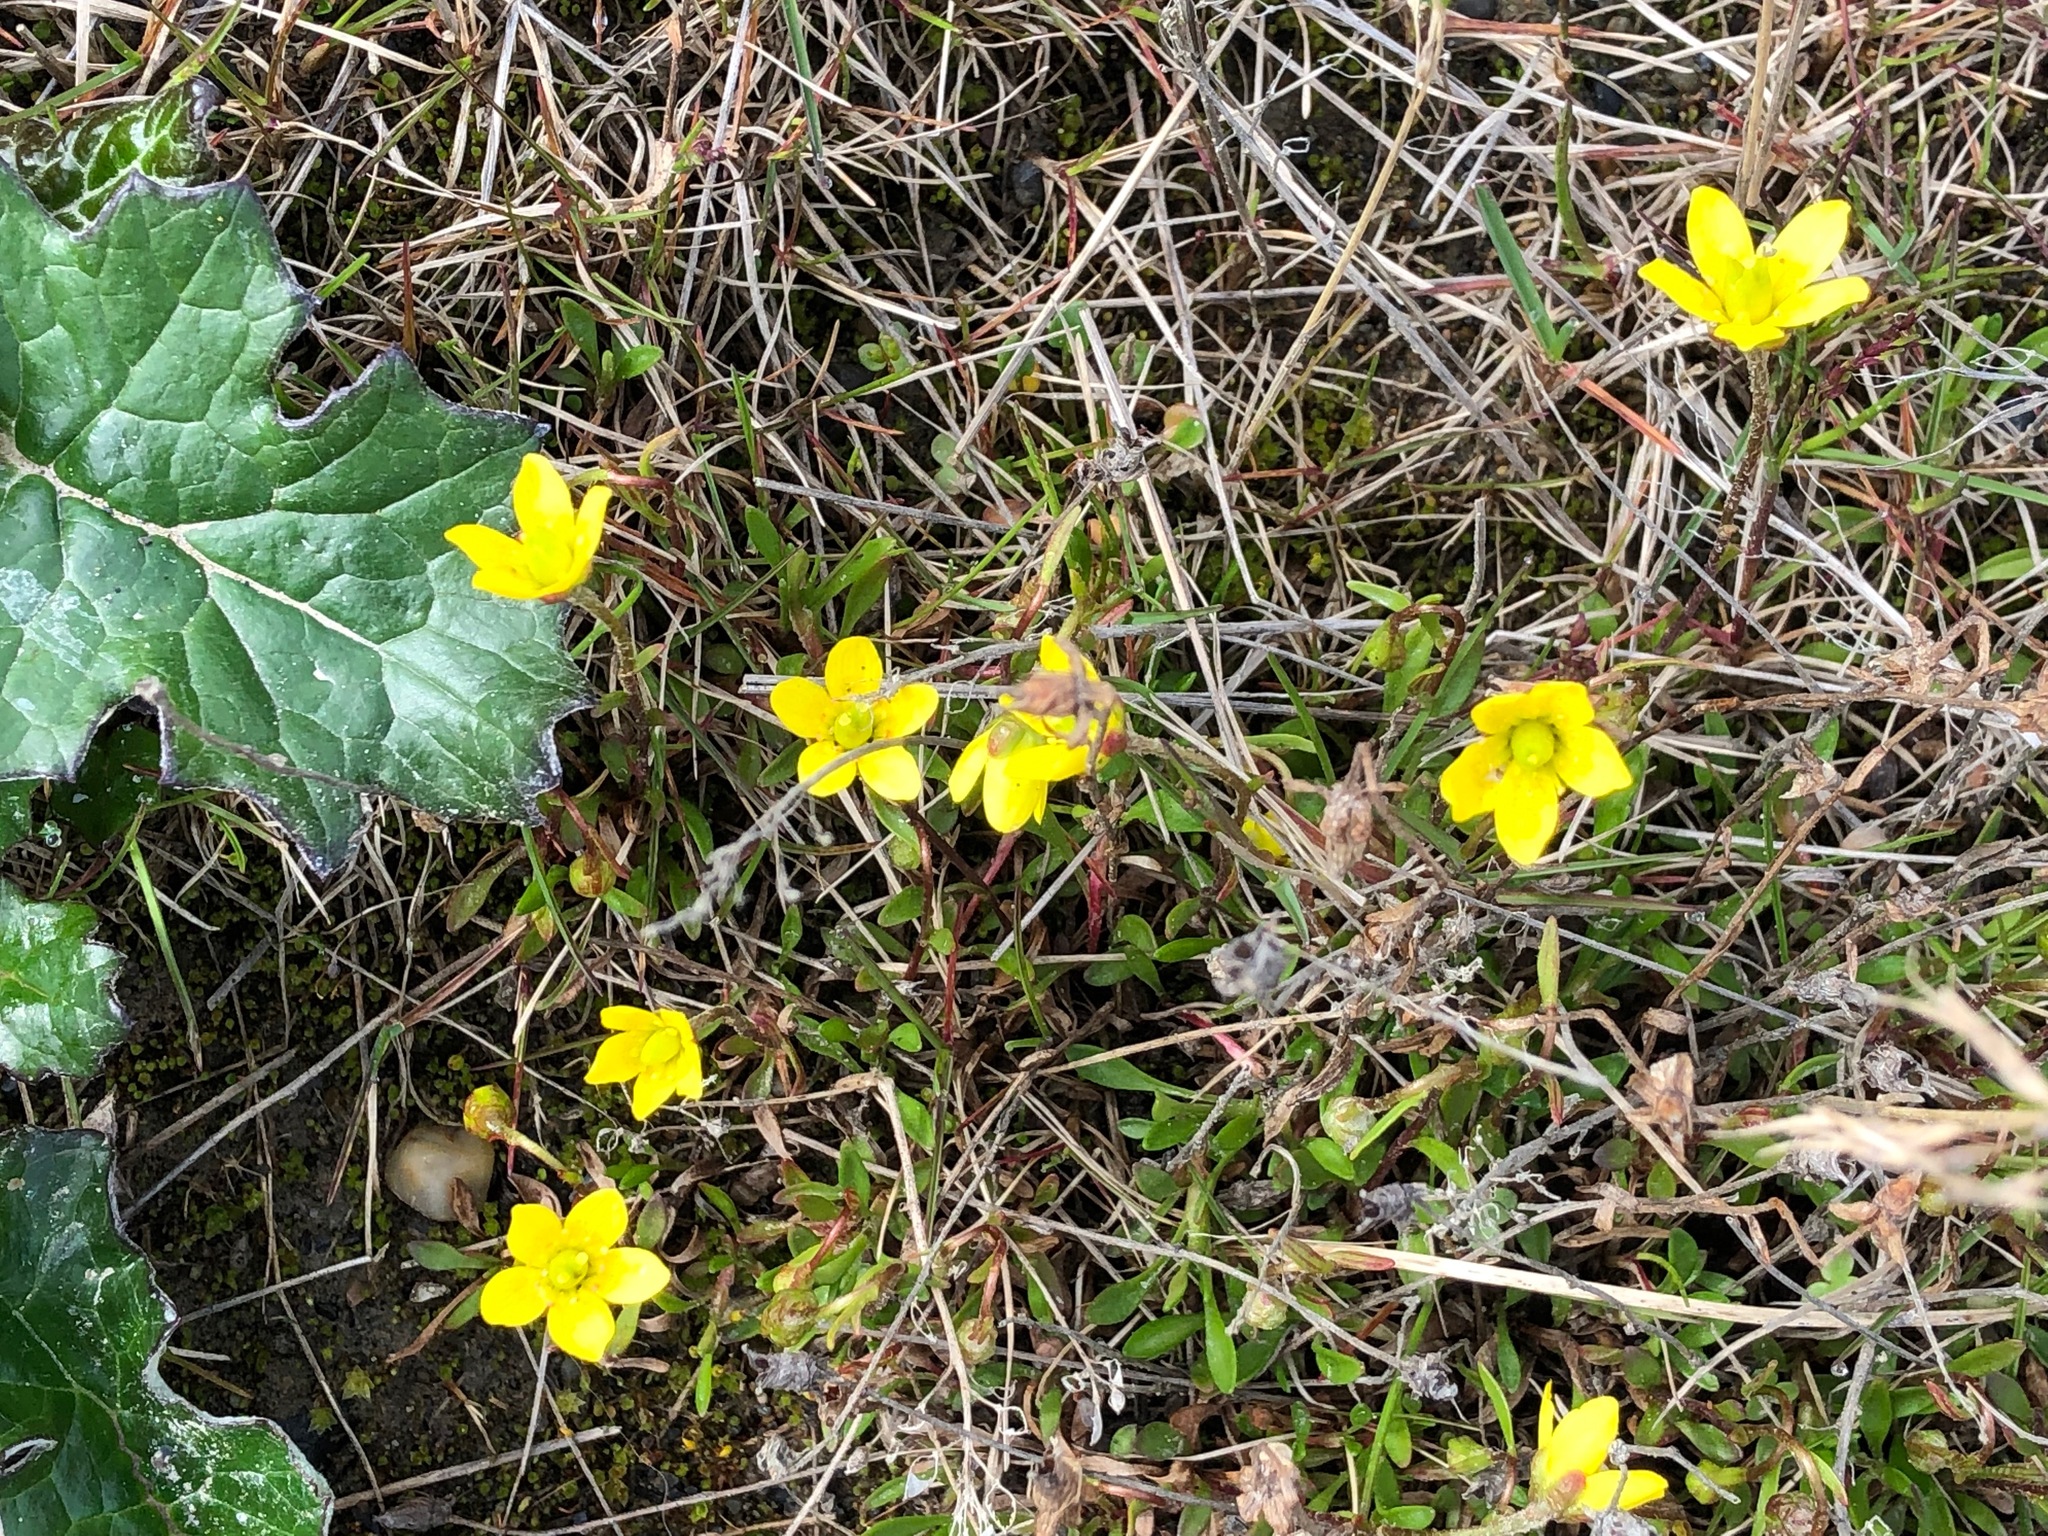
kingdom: Plantae
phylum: Tracheophyta
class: Magnoliopsida
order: Saxifragales
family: Saxifragaceae
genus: Saxifraga
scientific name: Saxifraga hirculus
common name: Yellow marsh saxifrage
